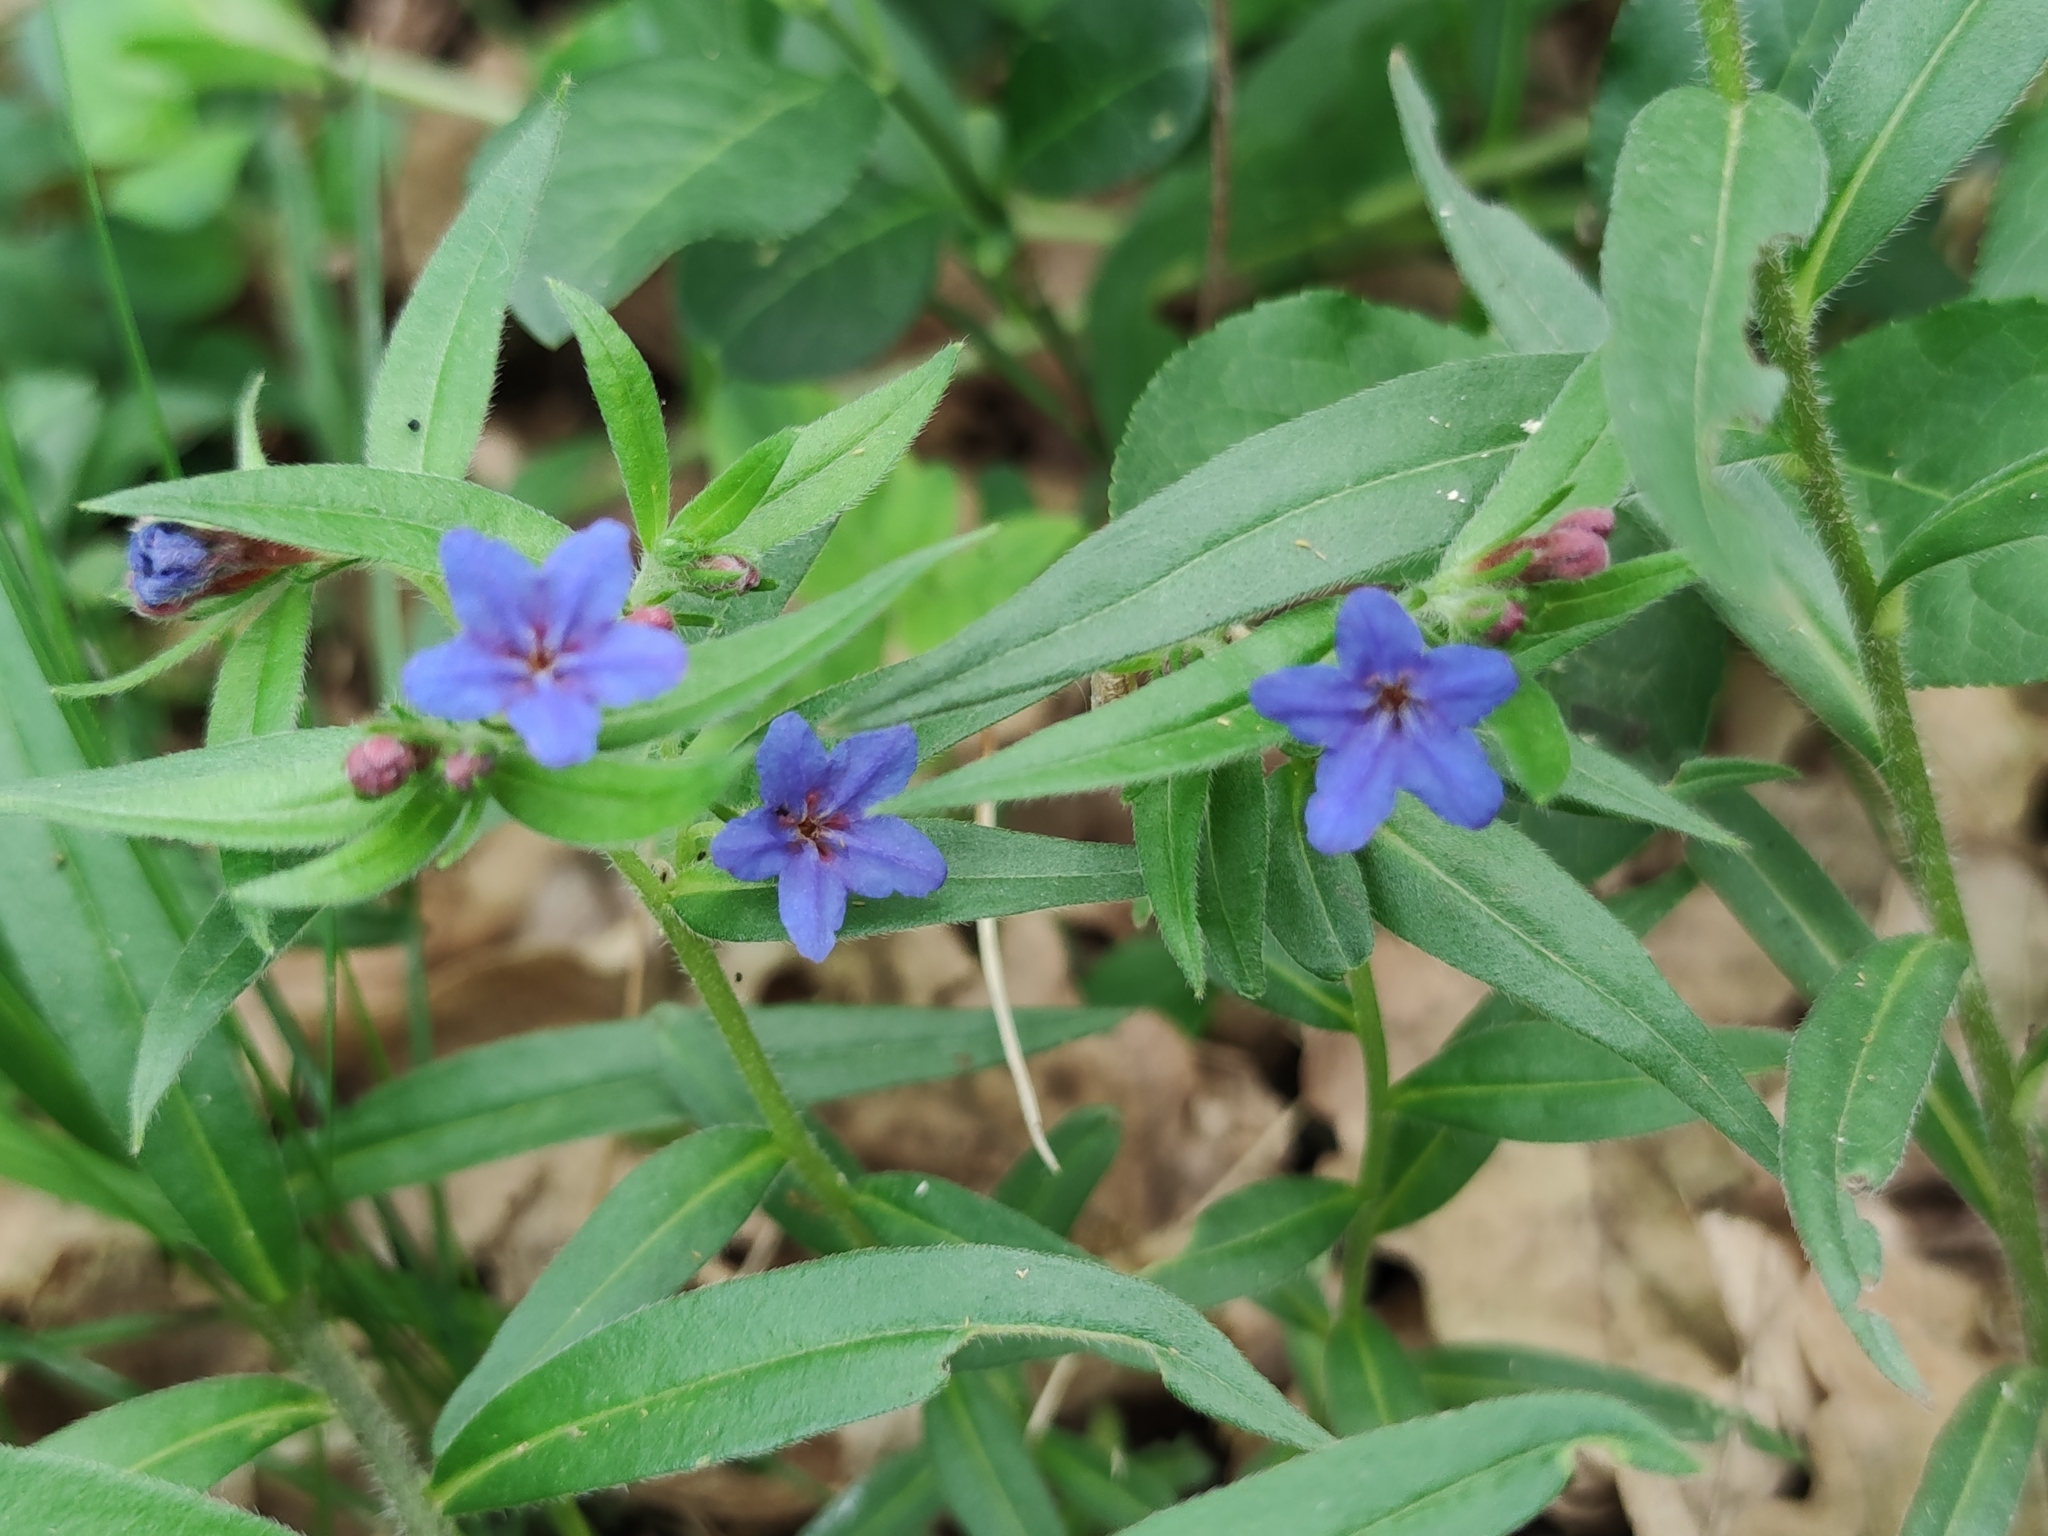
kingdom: Plantae
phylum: Tracheophyta
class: Magnoliopsida
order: Boraginales
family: Boraginaceae
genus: Aegonychon
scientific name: Aegonychon purpurocaeruleum
